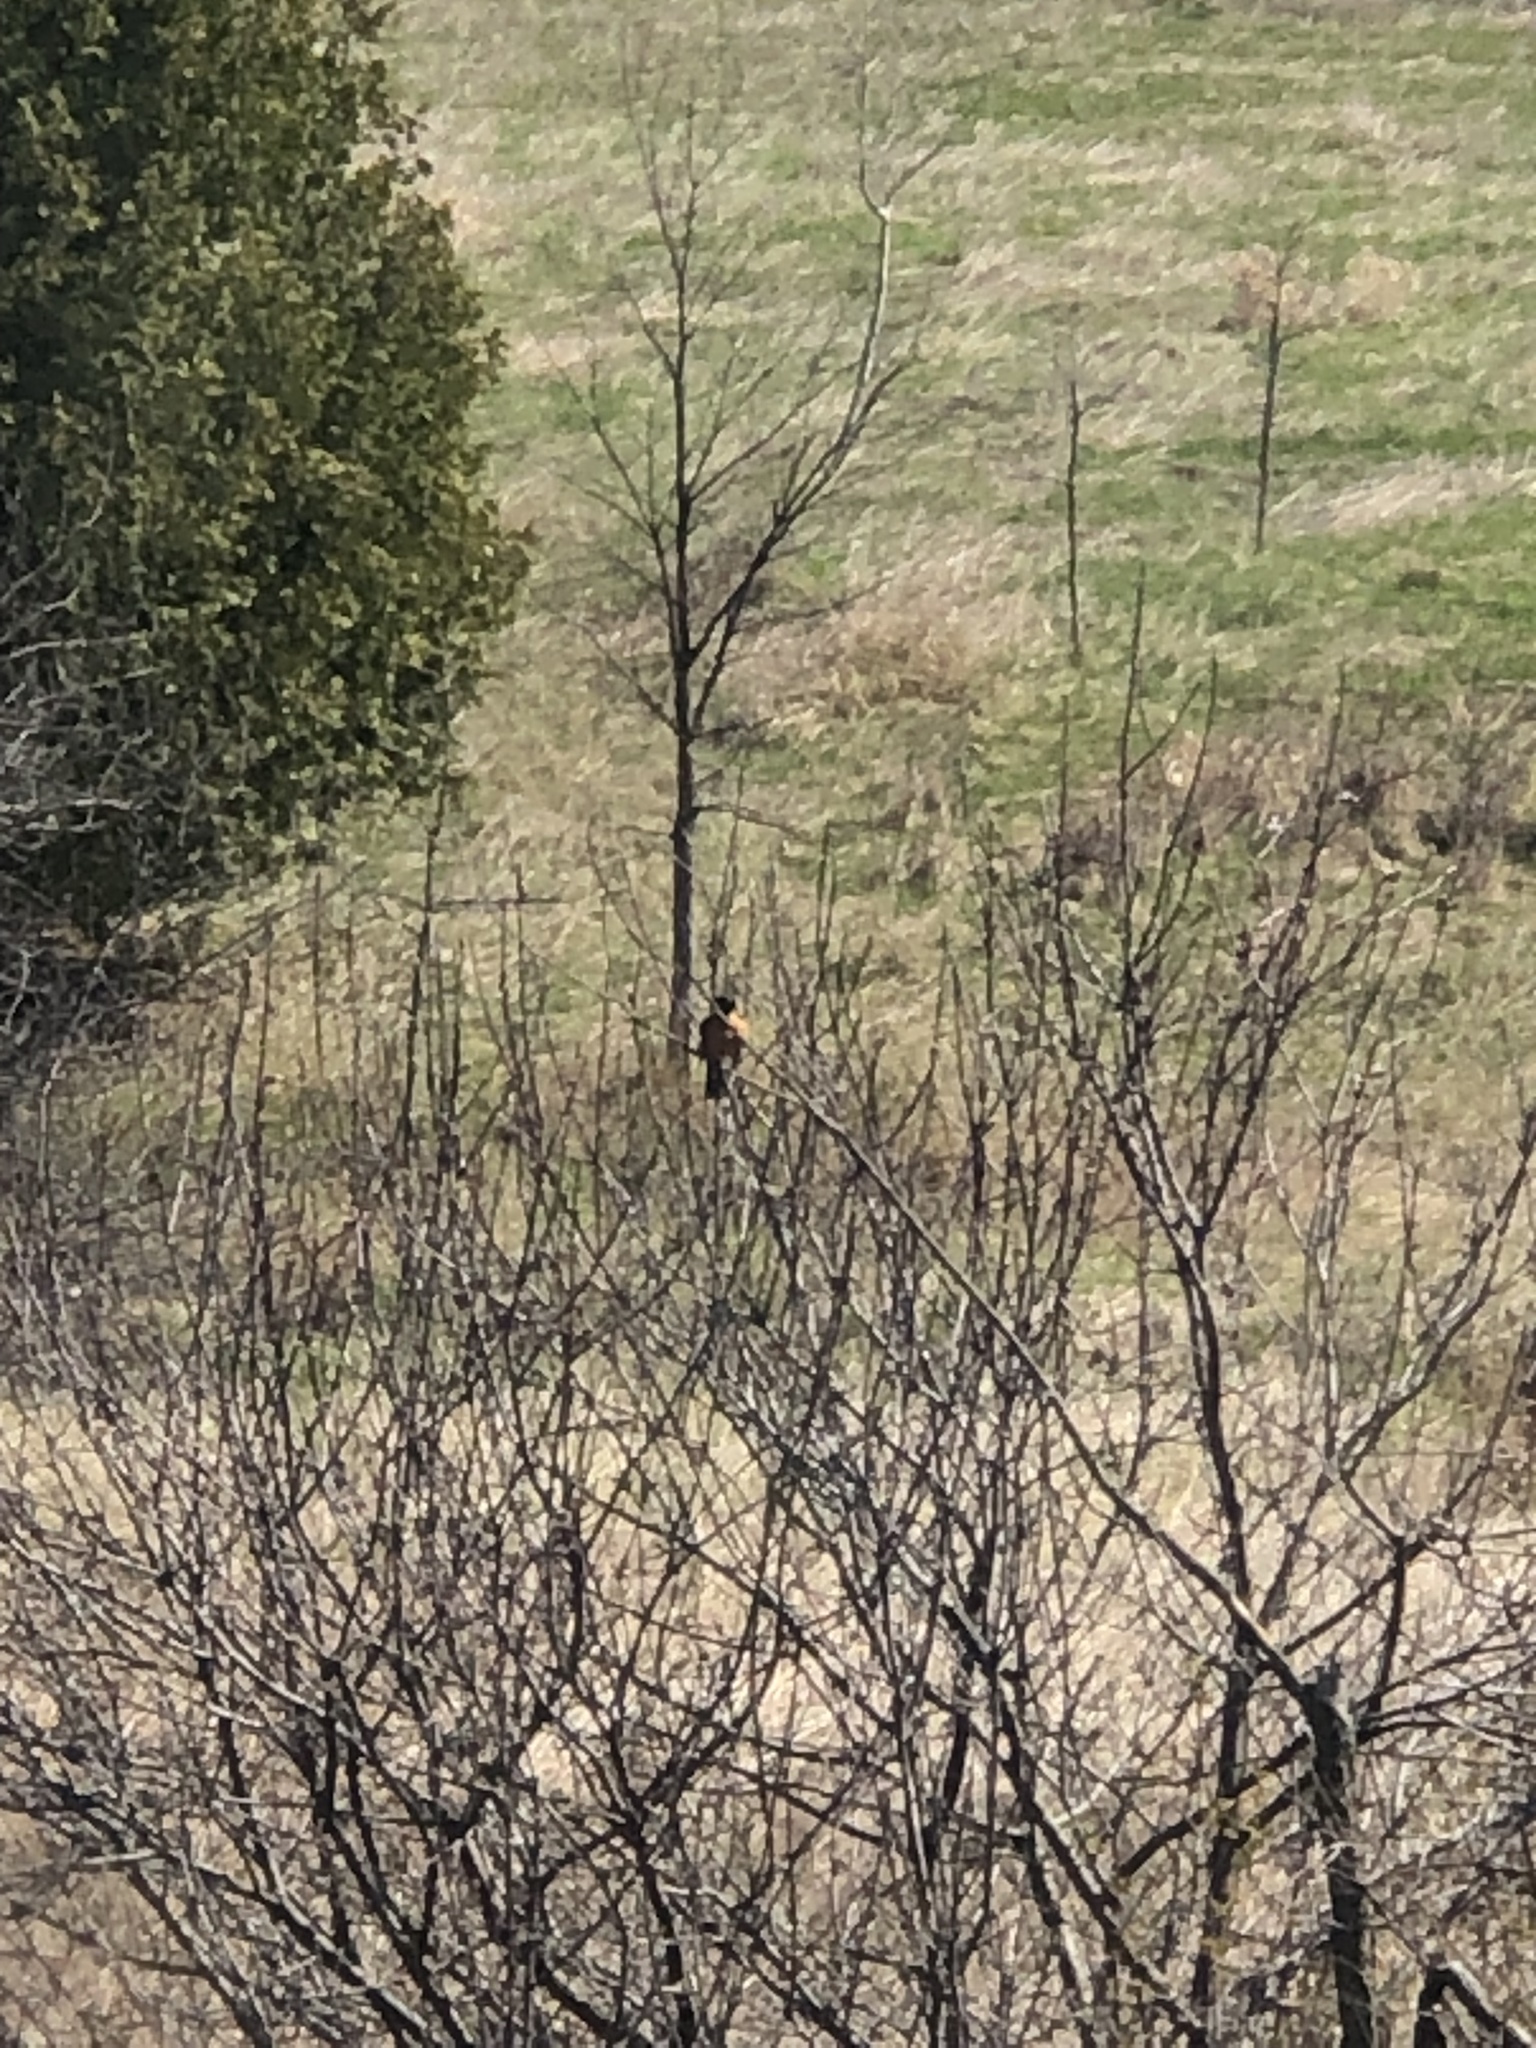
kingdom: Animalia
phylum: Chordata
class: Aves
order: Passeriformes
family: Turdidae
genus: Turdus
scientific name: Turdus migratorius
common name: American robin
